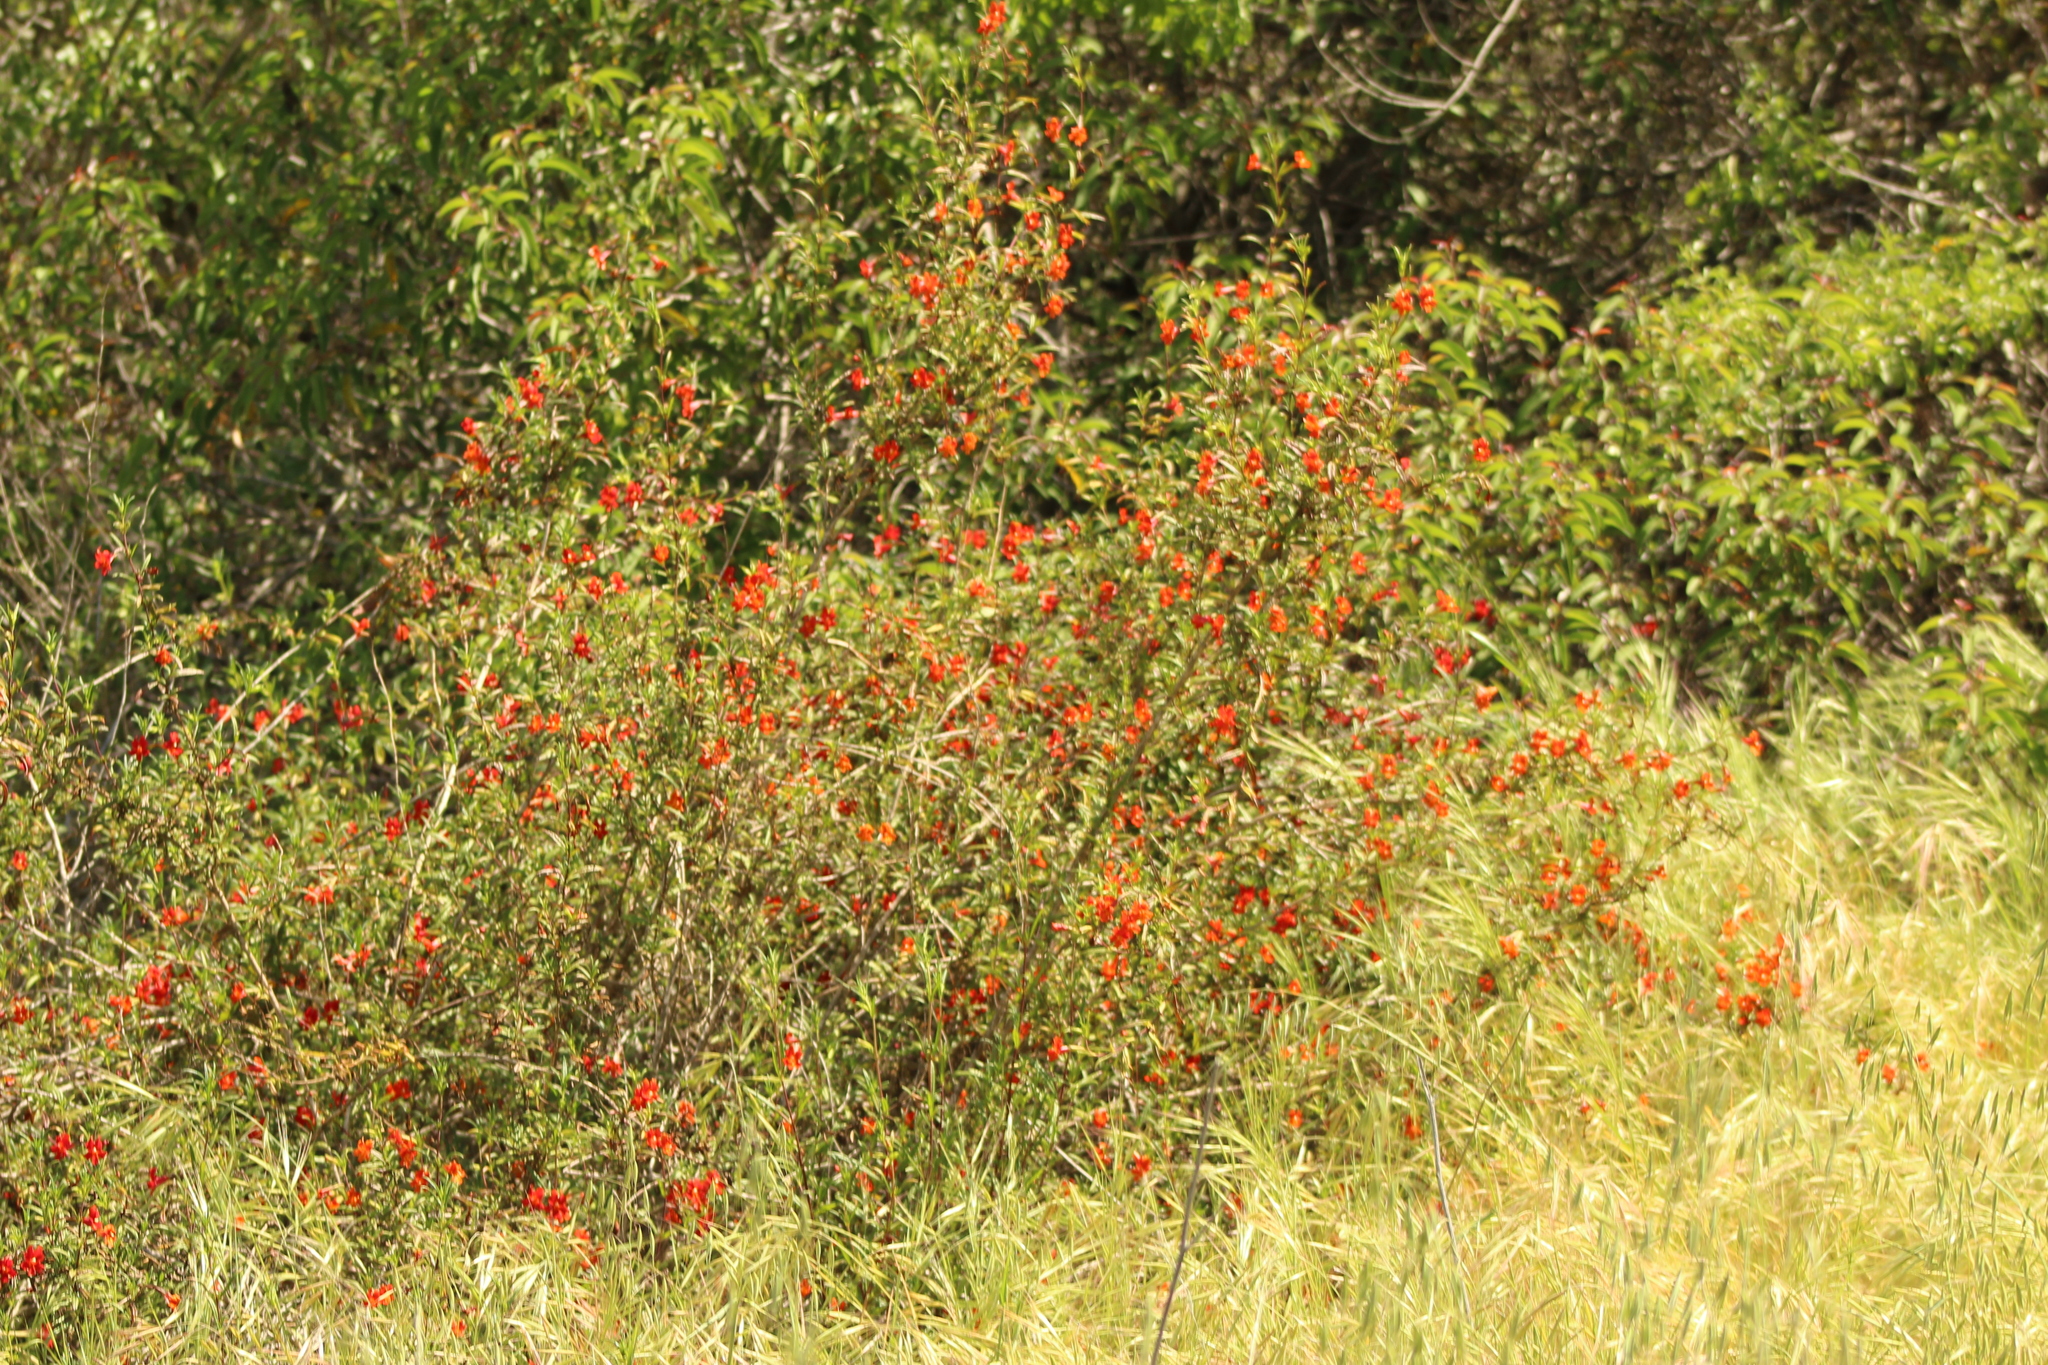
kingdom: Plantae
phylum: Tracheophyta
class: Magnoliopsida
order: Lamiales
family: Phrymaceae
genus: Diplacus
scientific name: Diplacus puniceus
